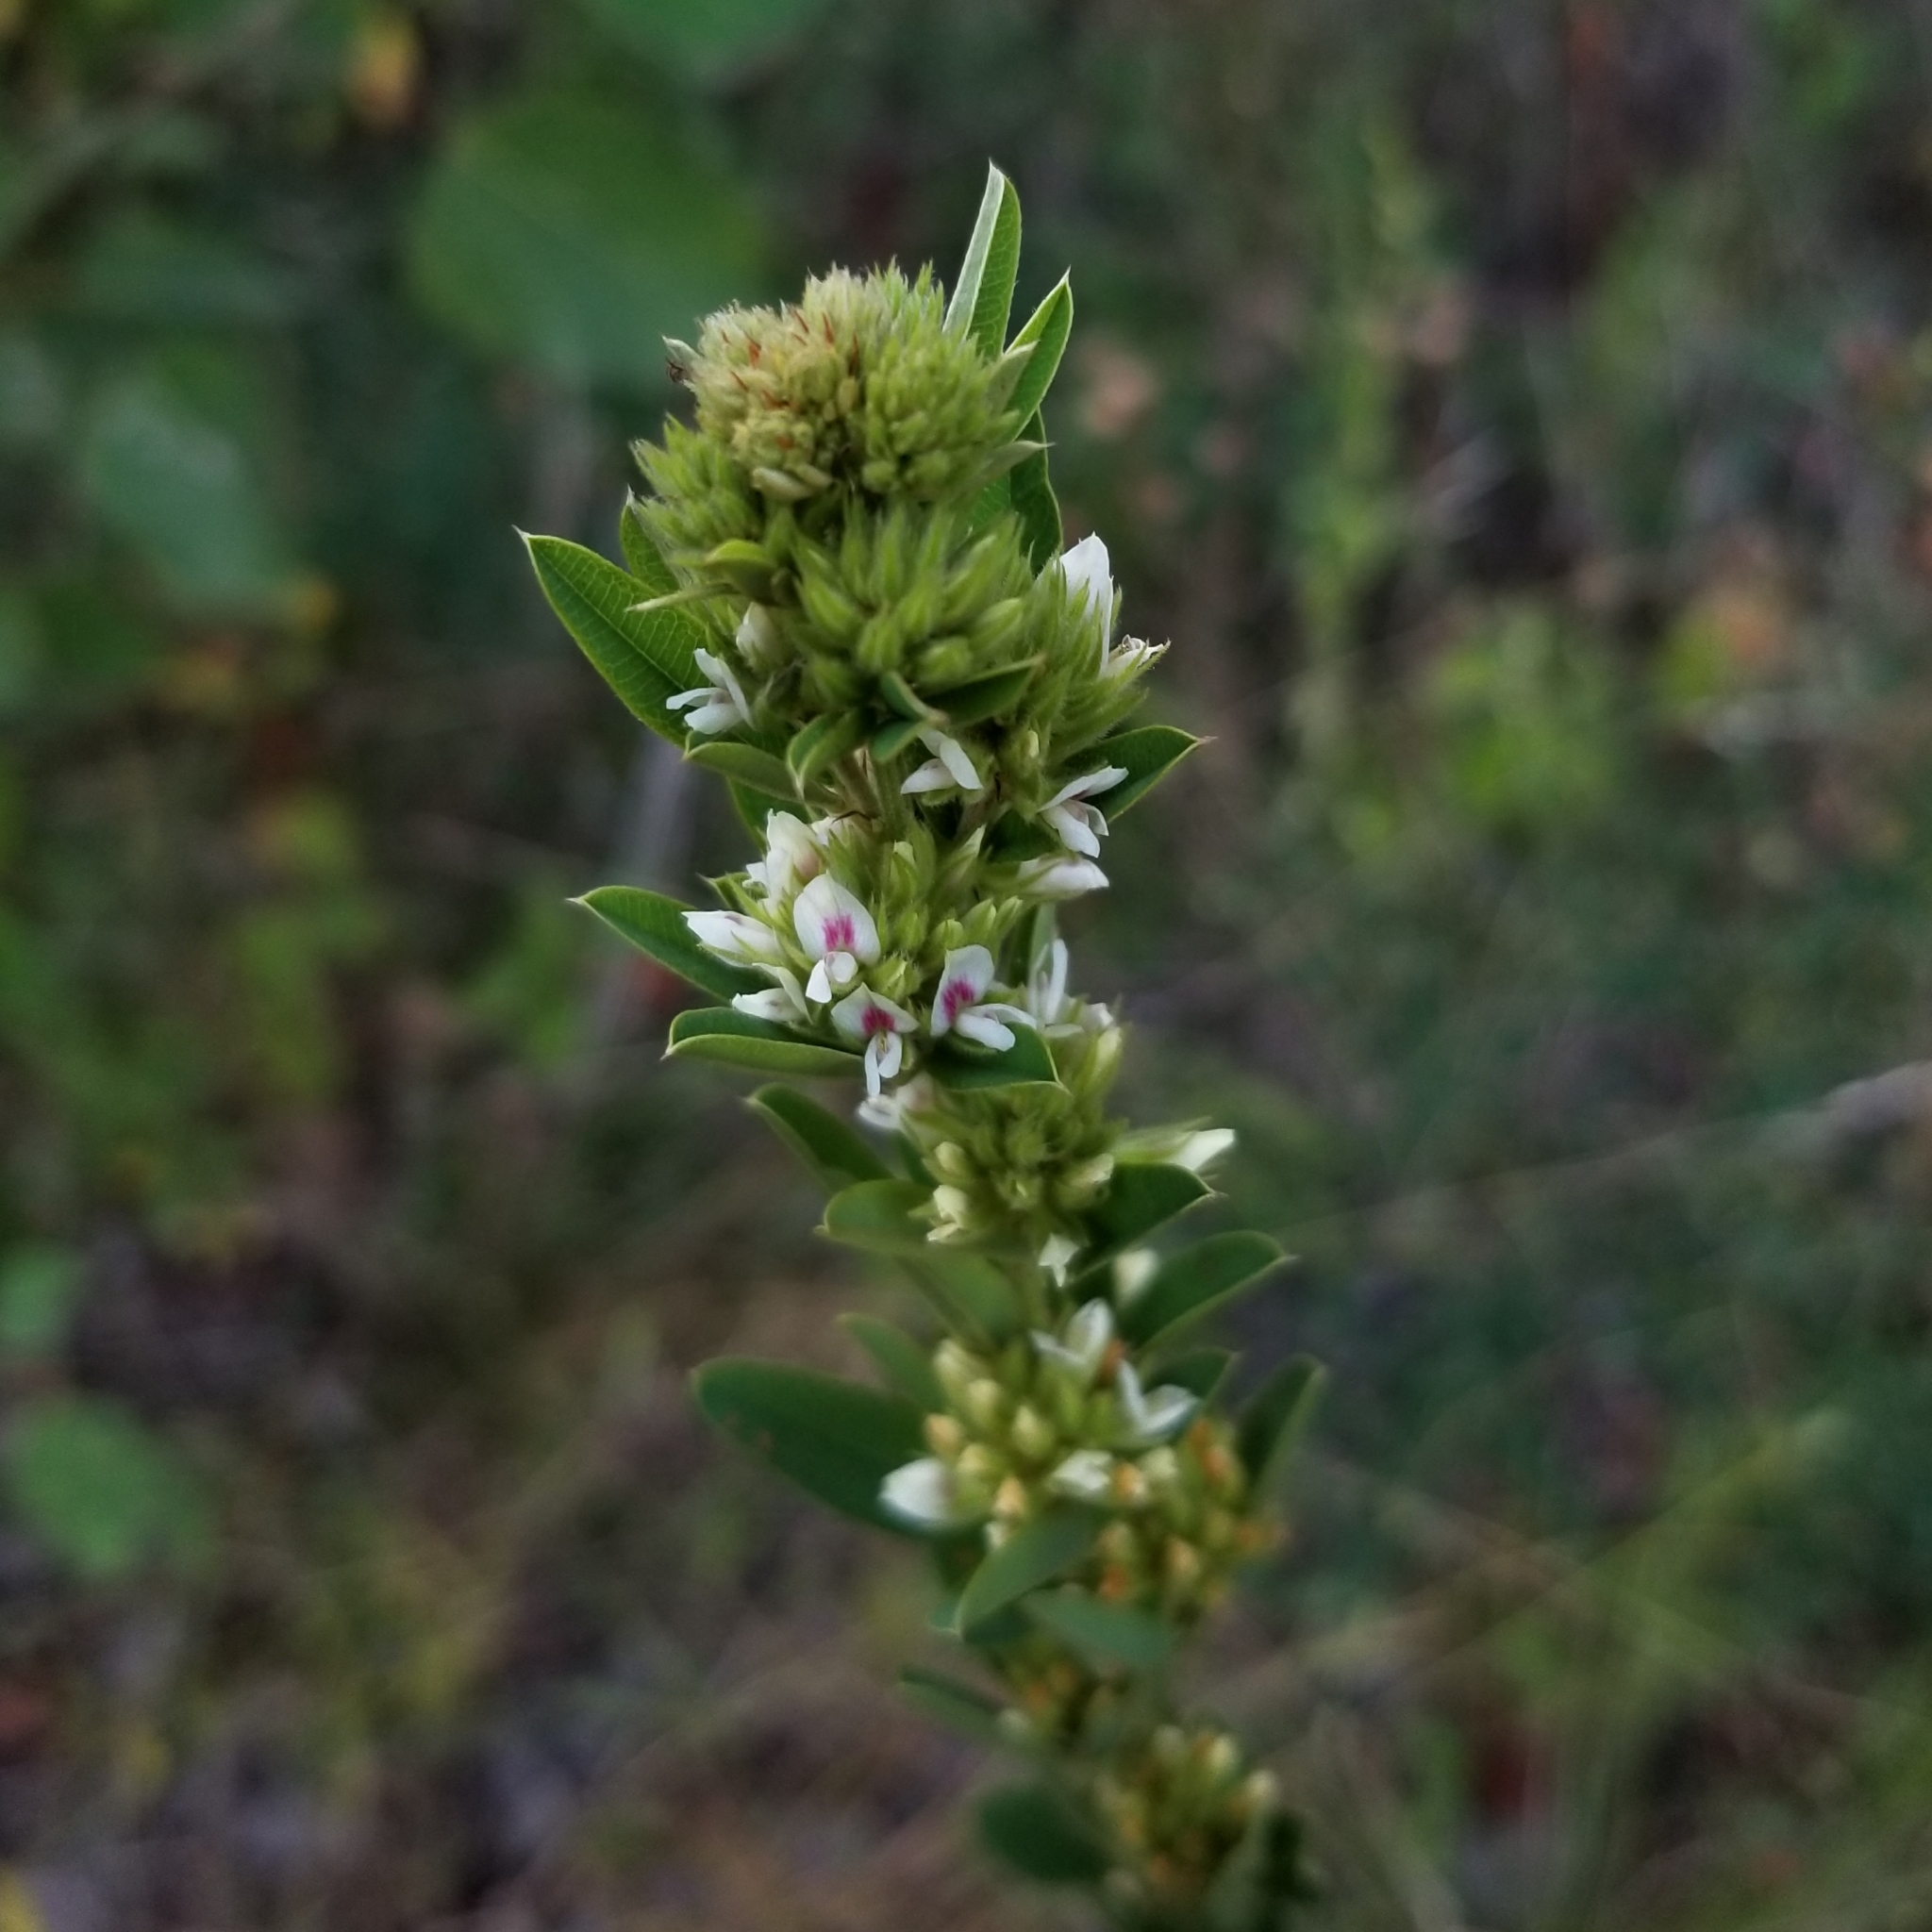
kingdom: Plantae
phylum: Tracheophyta
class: Magnoliopsida
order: Fabales
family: Fabaceae
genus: Lespedeza
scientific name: Lespedeza capitata
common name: Dusty clover
